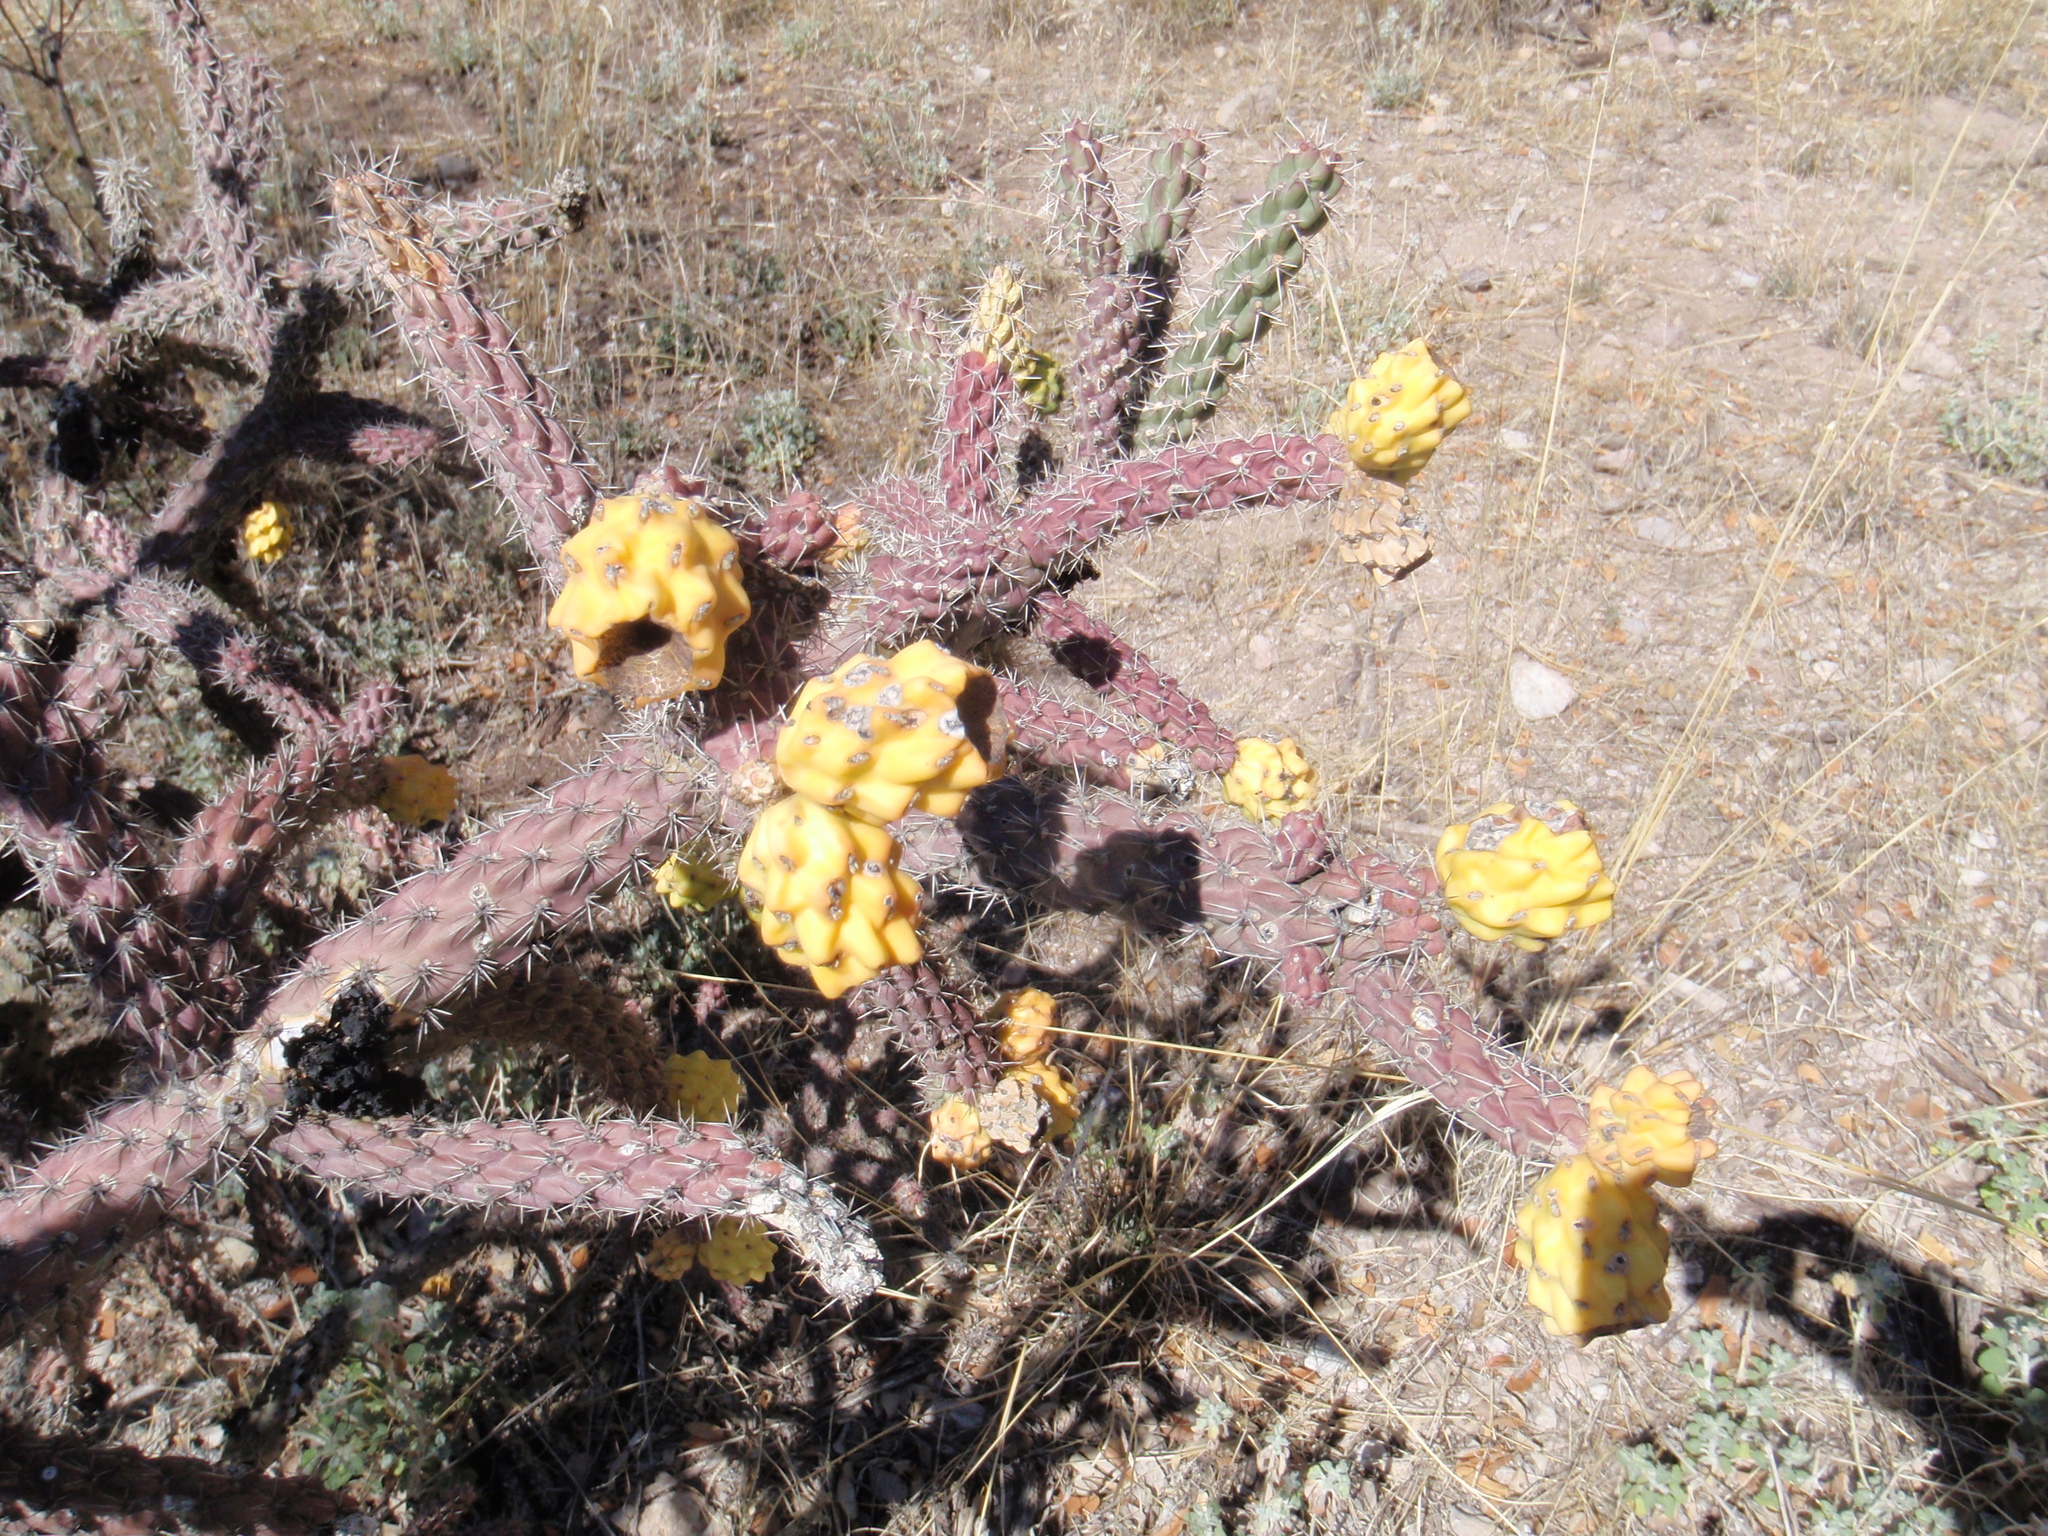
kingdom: Plantae
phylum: Tracheophyta
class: Magnoliopsida
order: Caryophyllales
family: Cactaceae
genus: Cylindropuntia
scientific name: Cylindropuntia imbricata
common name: Candelabrum cactus
